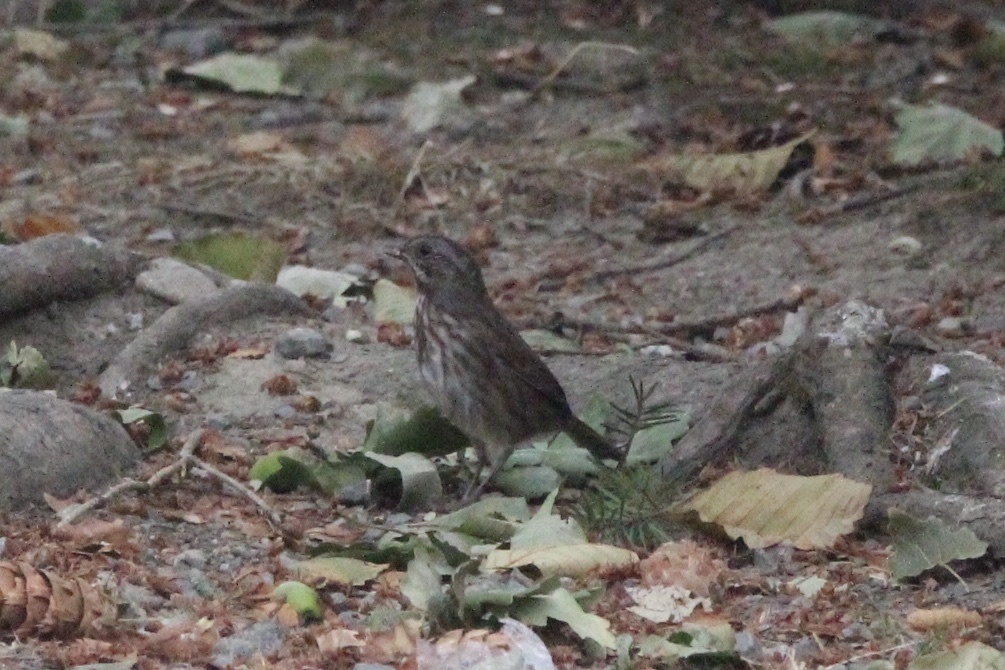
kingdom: Animalia
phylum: Chordata
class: Aves
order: Passeriformes
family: Passerellidae
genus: Melospiza
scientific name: Melospiza melodia
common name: Song sparrow
